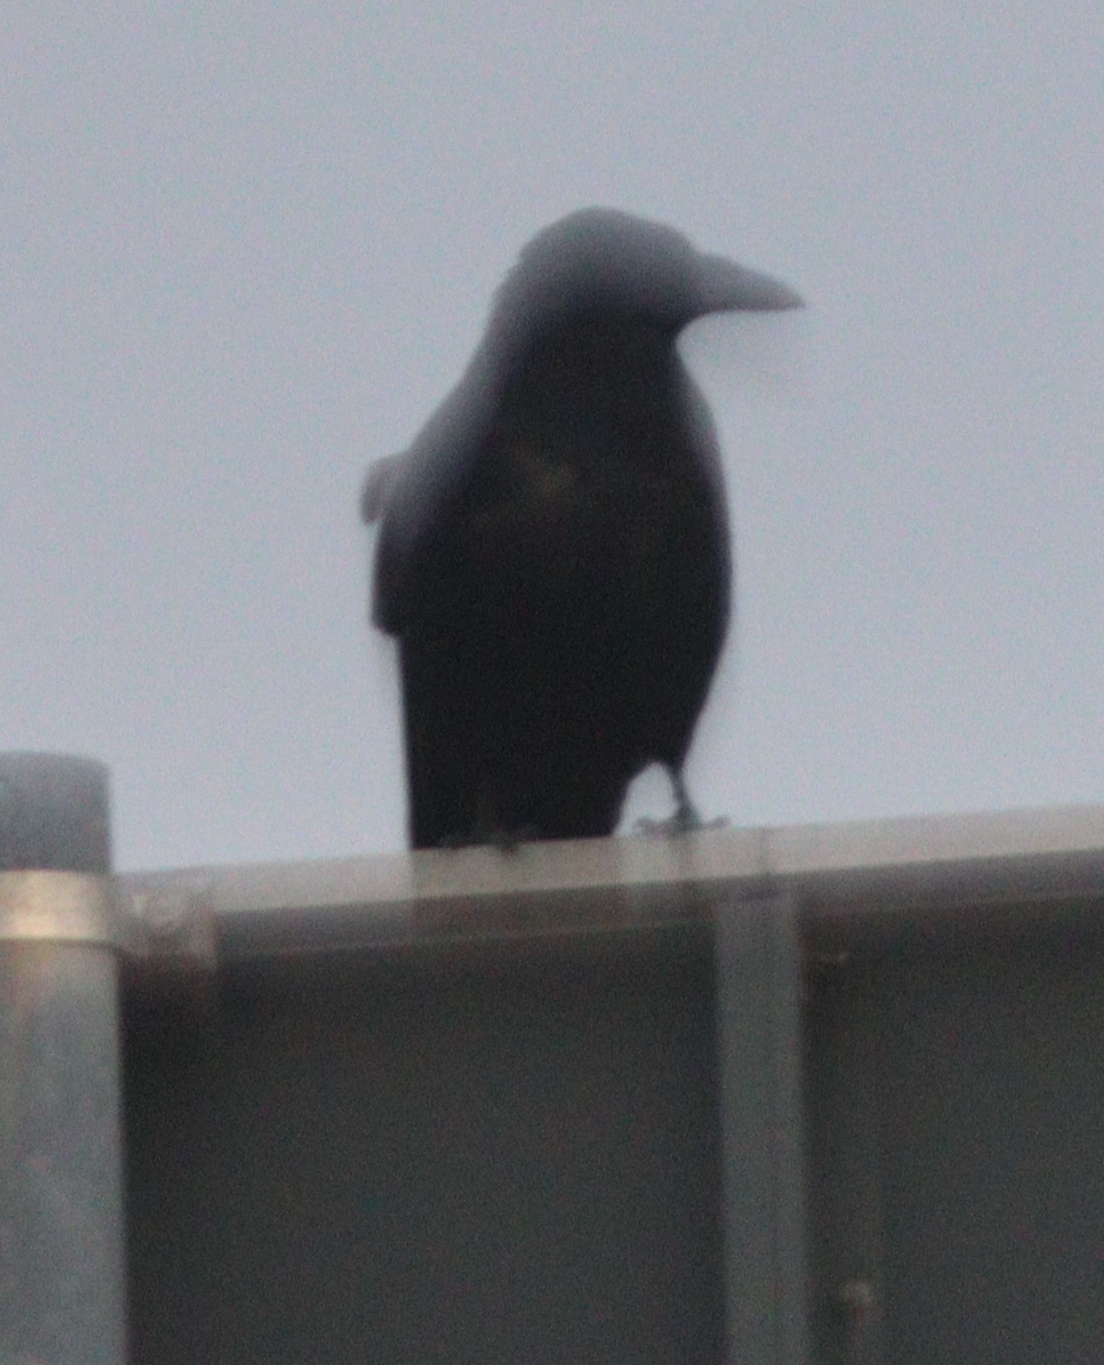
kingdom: Animalia
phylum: Chordata
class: Aves
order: Passeriformes
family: Corvidae
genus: Corvus
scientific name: Corvus corone
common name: Carrion crow
